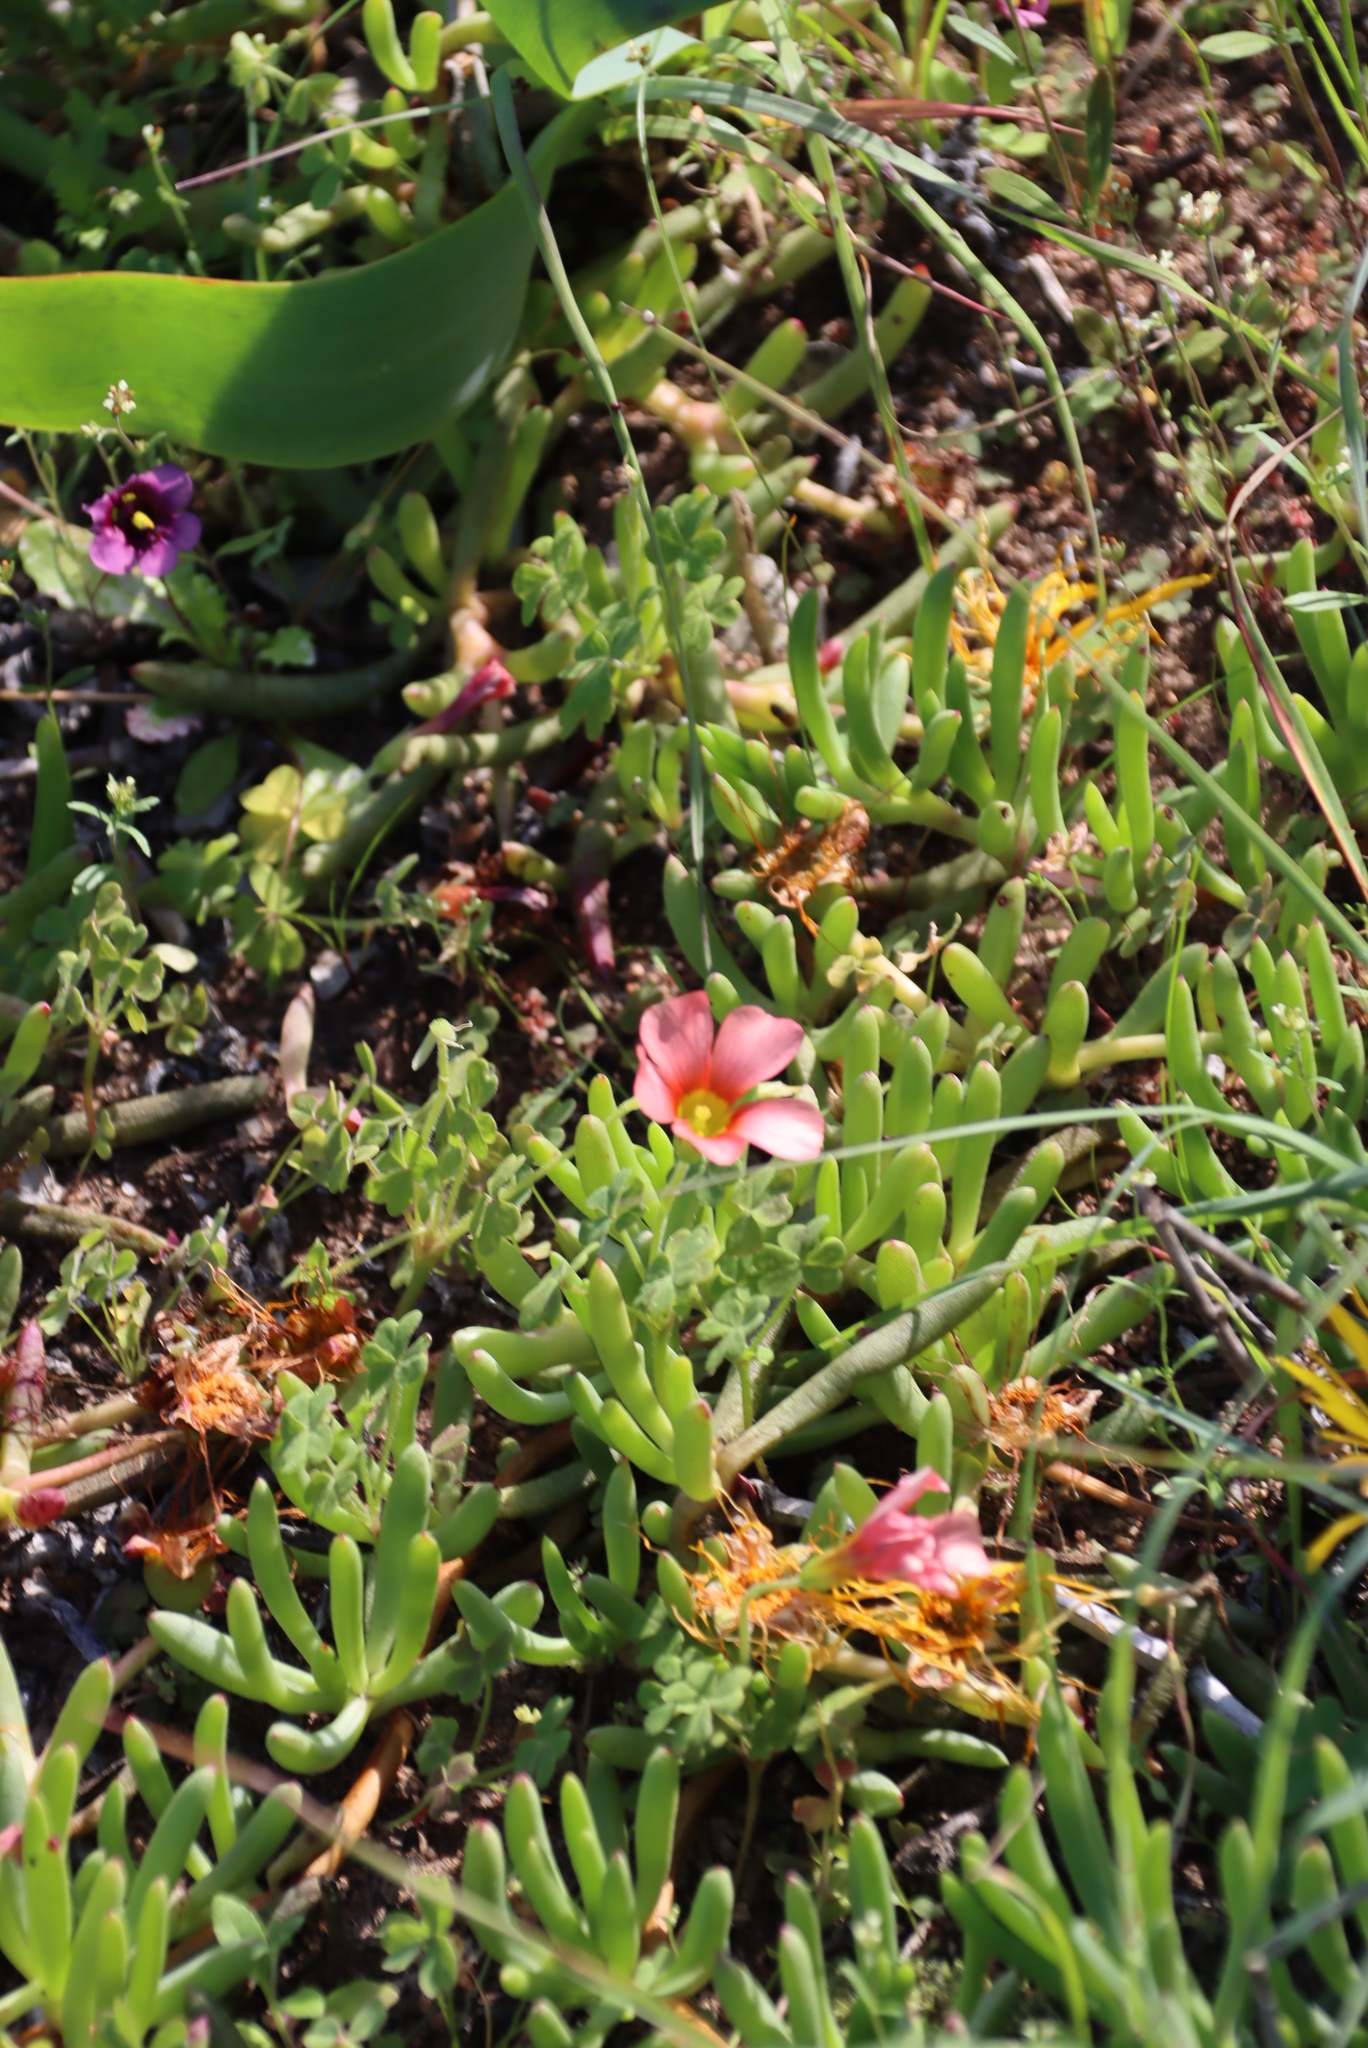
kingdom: Plantae
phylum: Tracheophyta
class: Magnoliopsida
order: Oxalidales
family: Oxalidaceae
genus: Oxalis
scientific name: Oxalis obtusa
